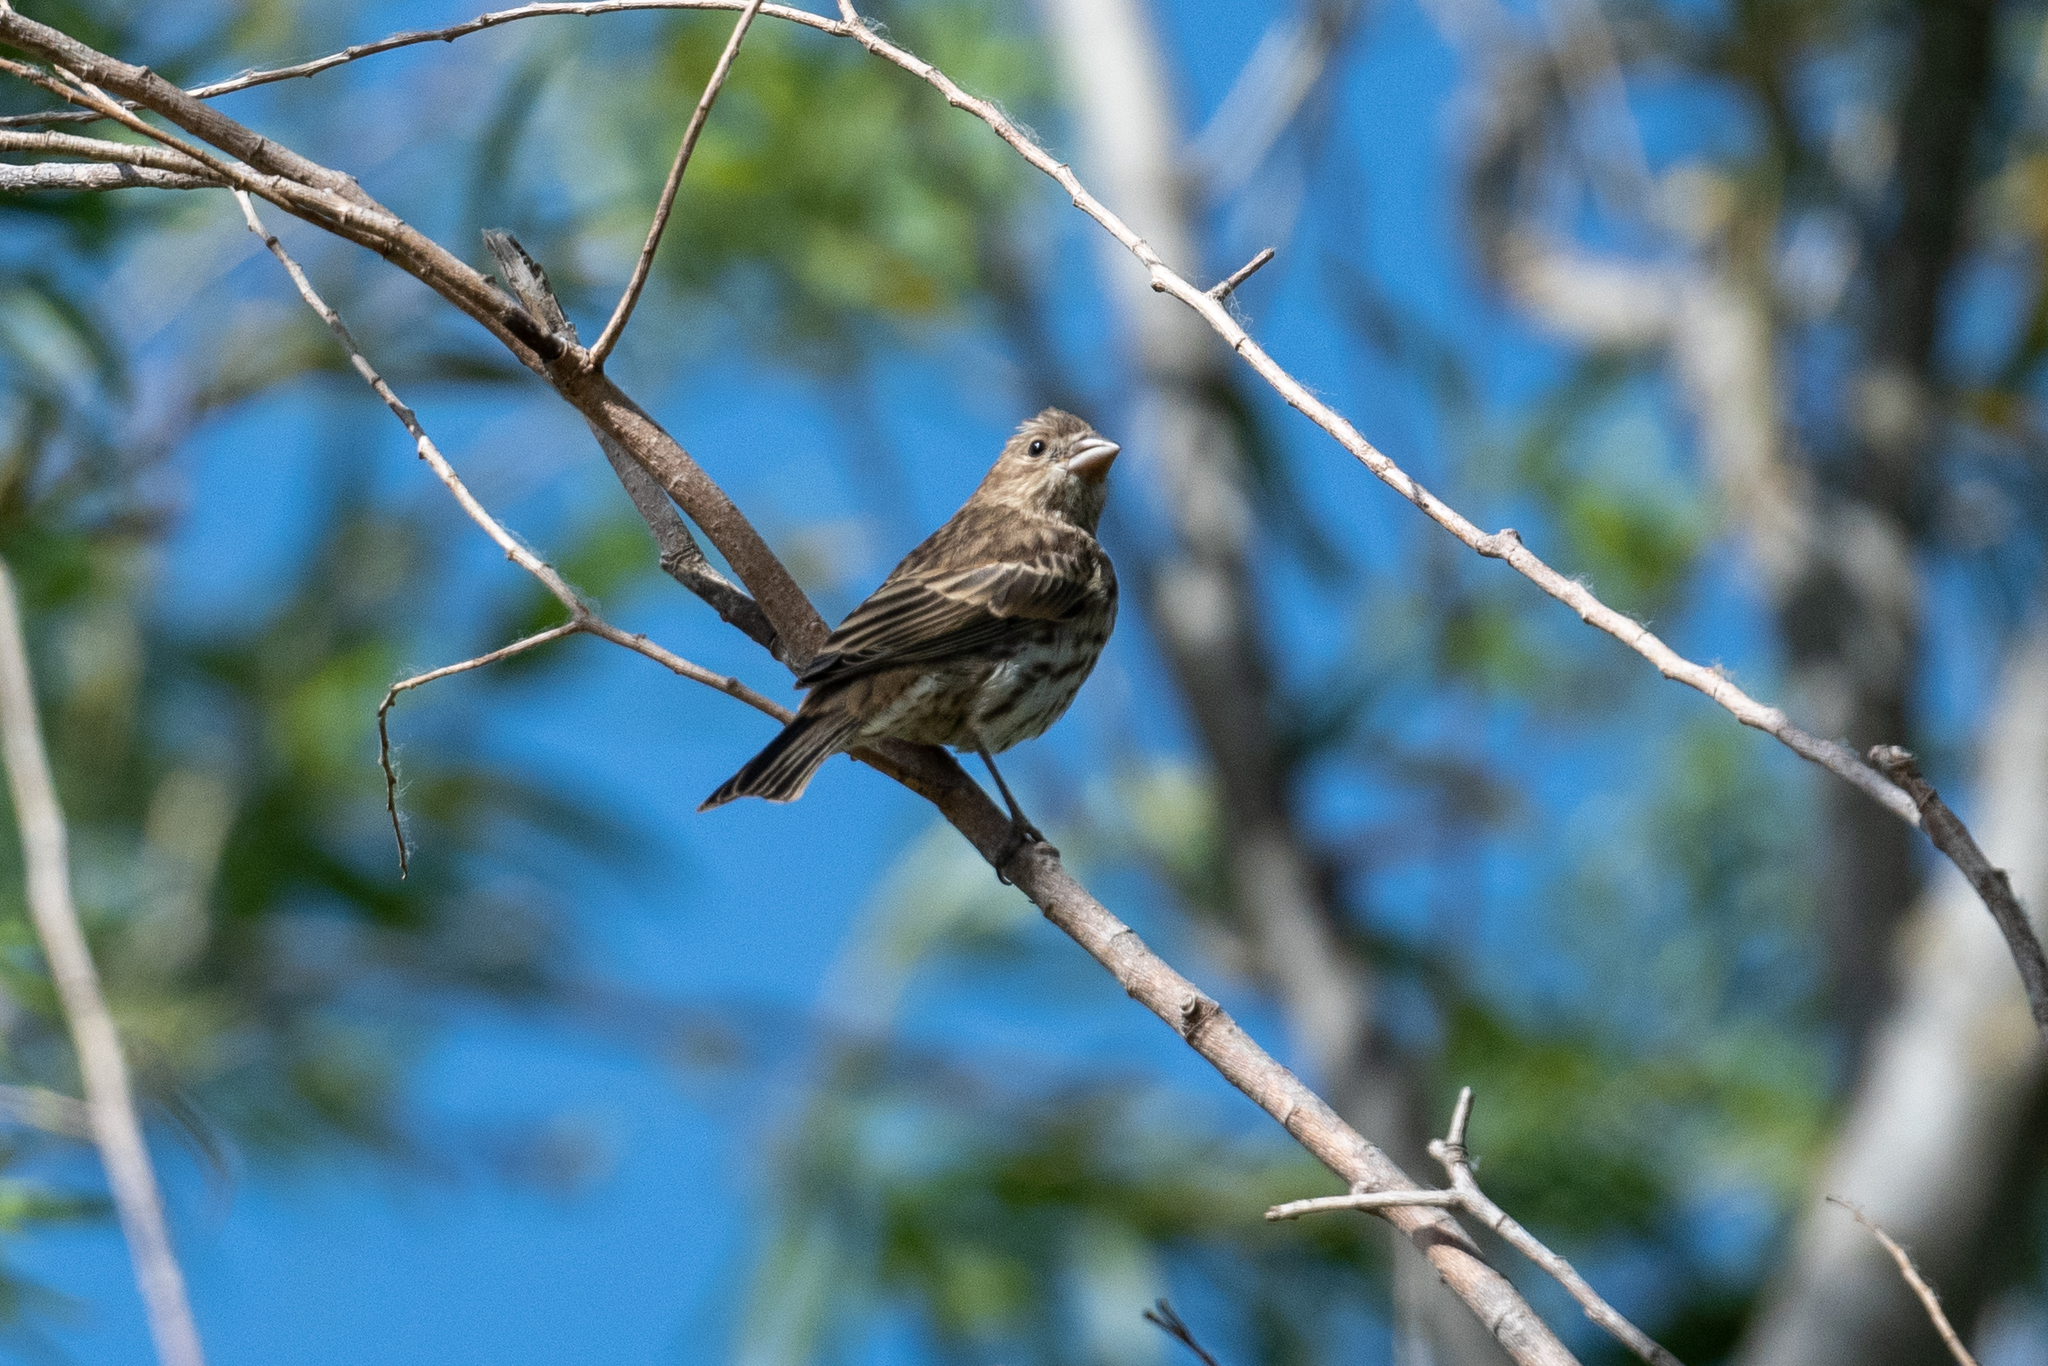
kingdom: Animalia
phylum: Chordata
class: Aves
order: Passeriformes
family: Fringillidae
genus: Haemorhous
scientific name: Haemorhous mexicanus
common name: House finch
